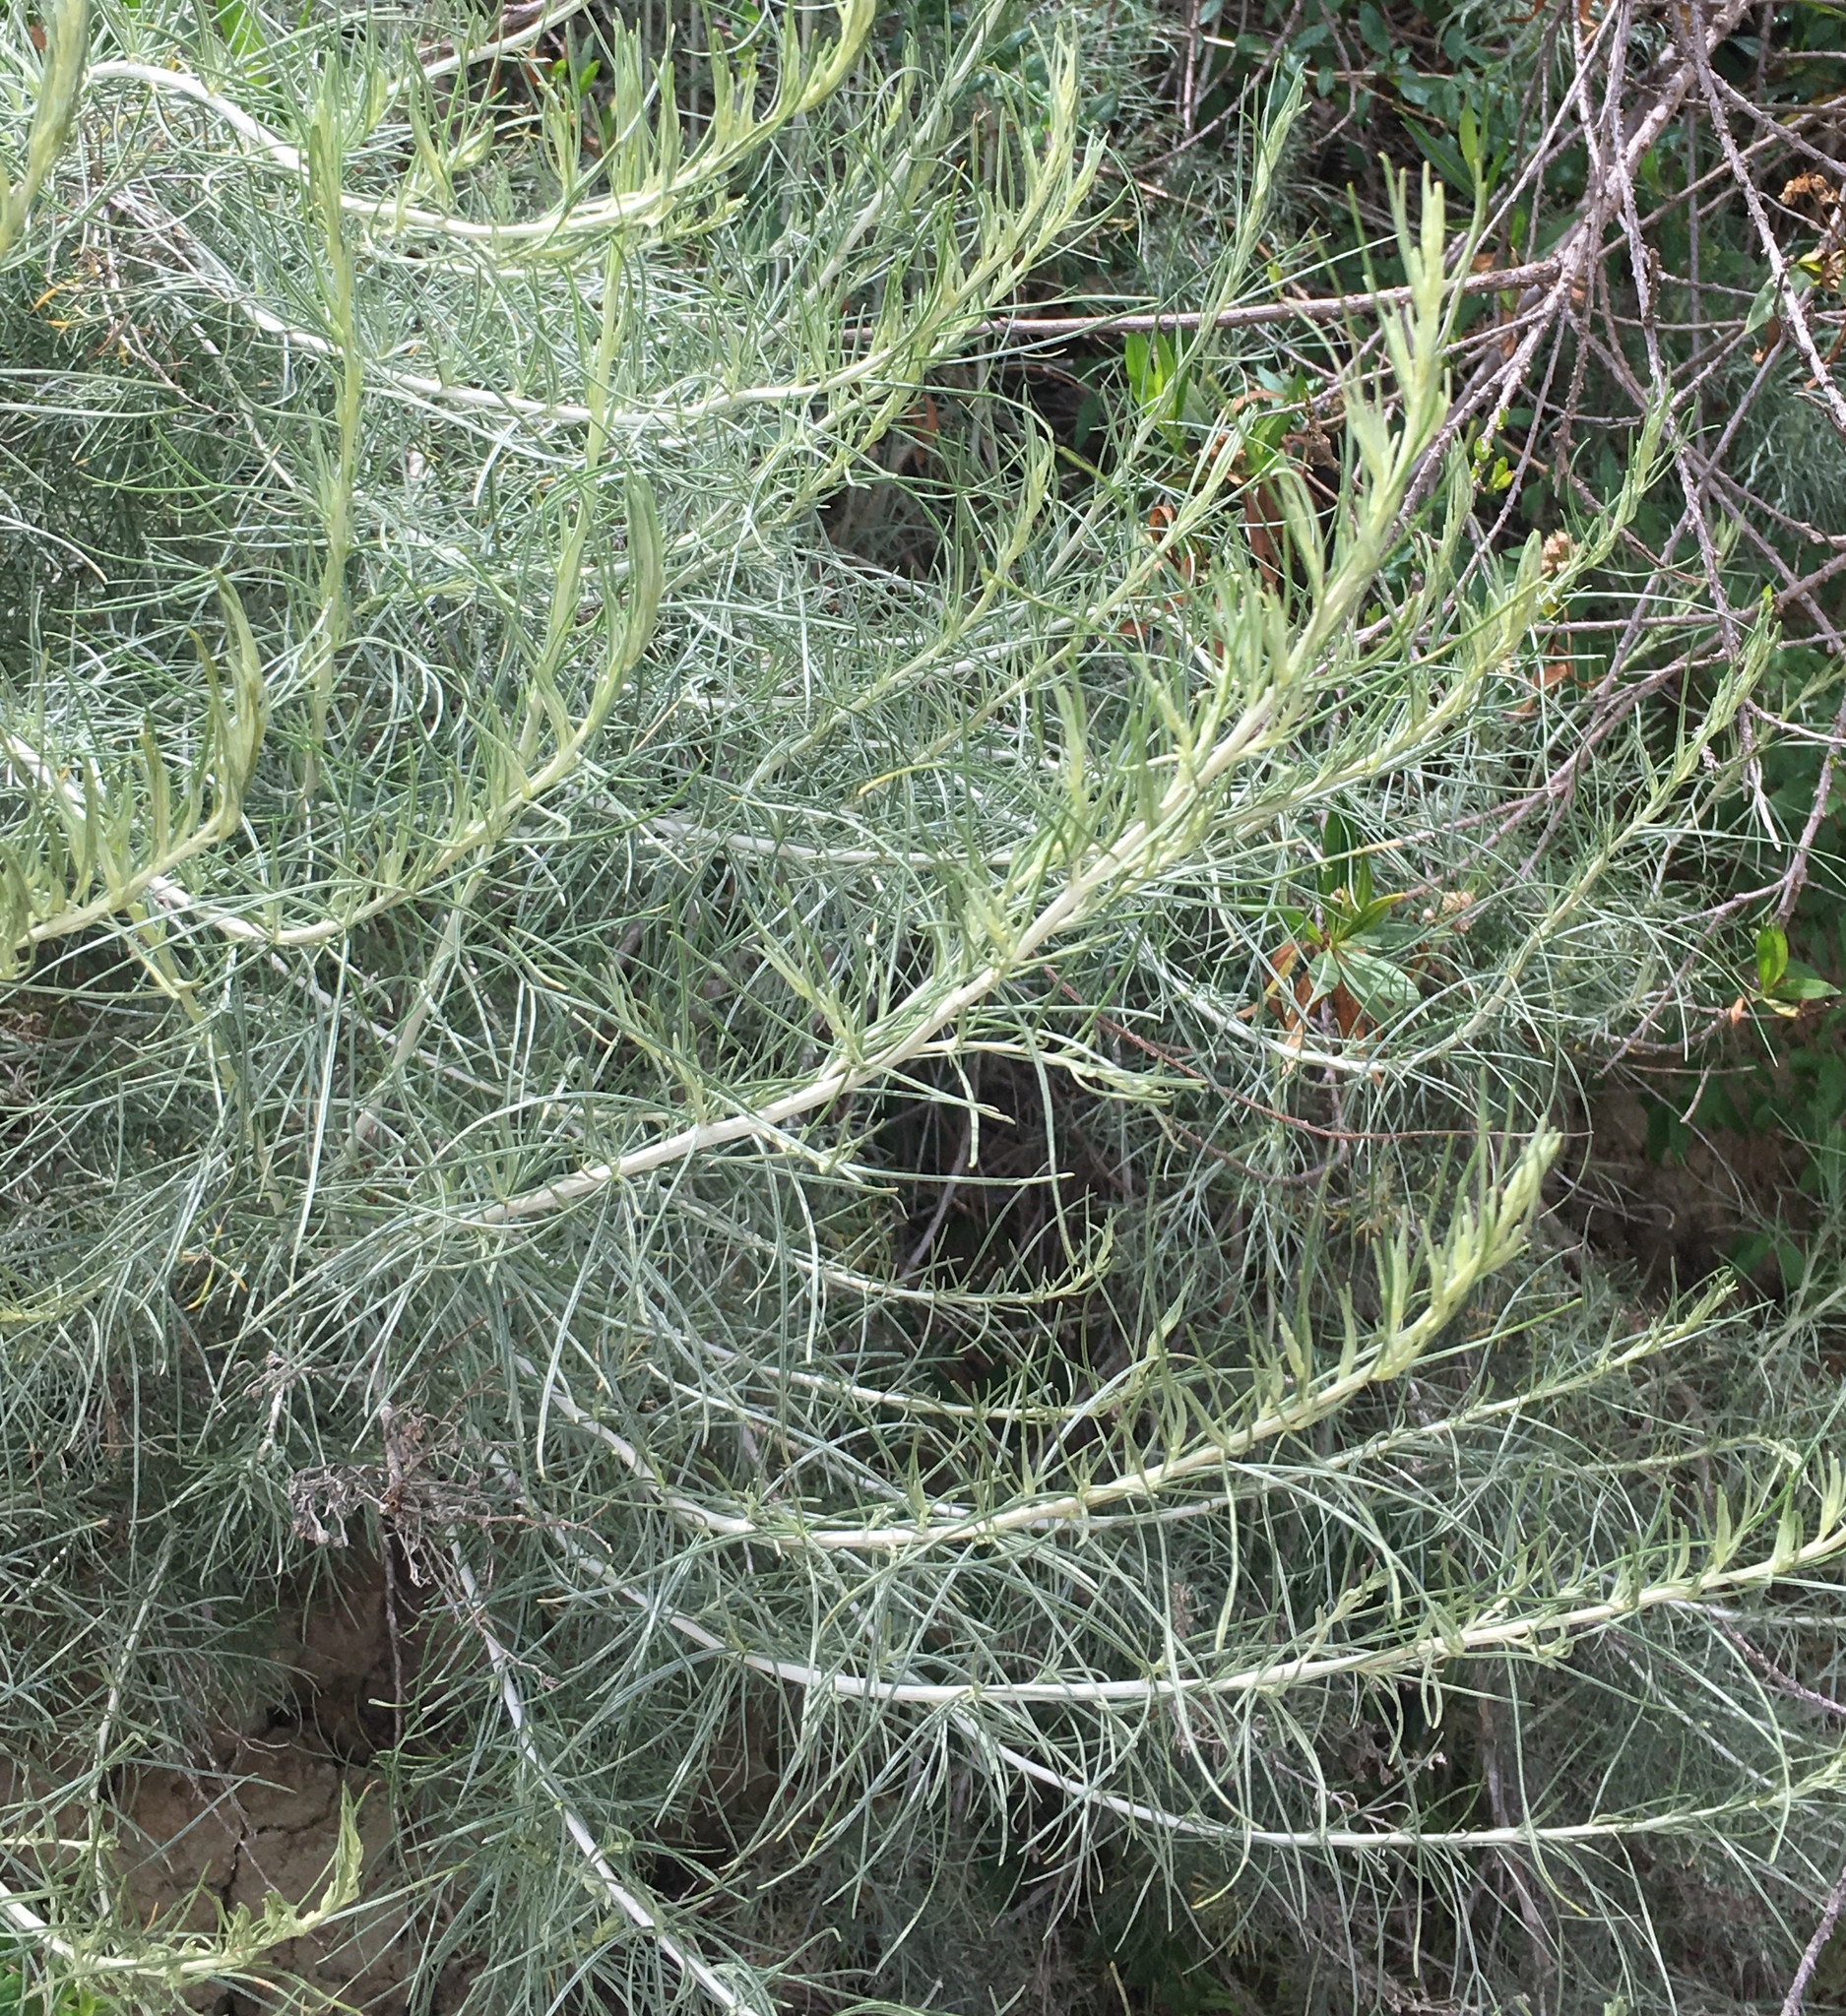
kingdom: Plantae
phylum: Tracheophyta
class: Magnoliopsida
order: Asterales
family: Asteraceae
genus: Artemisia
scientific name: Artemisia californica
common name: California sagebrush
